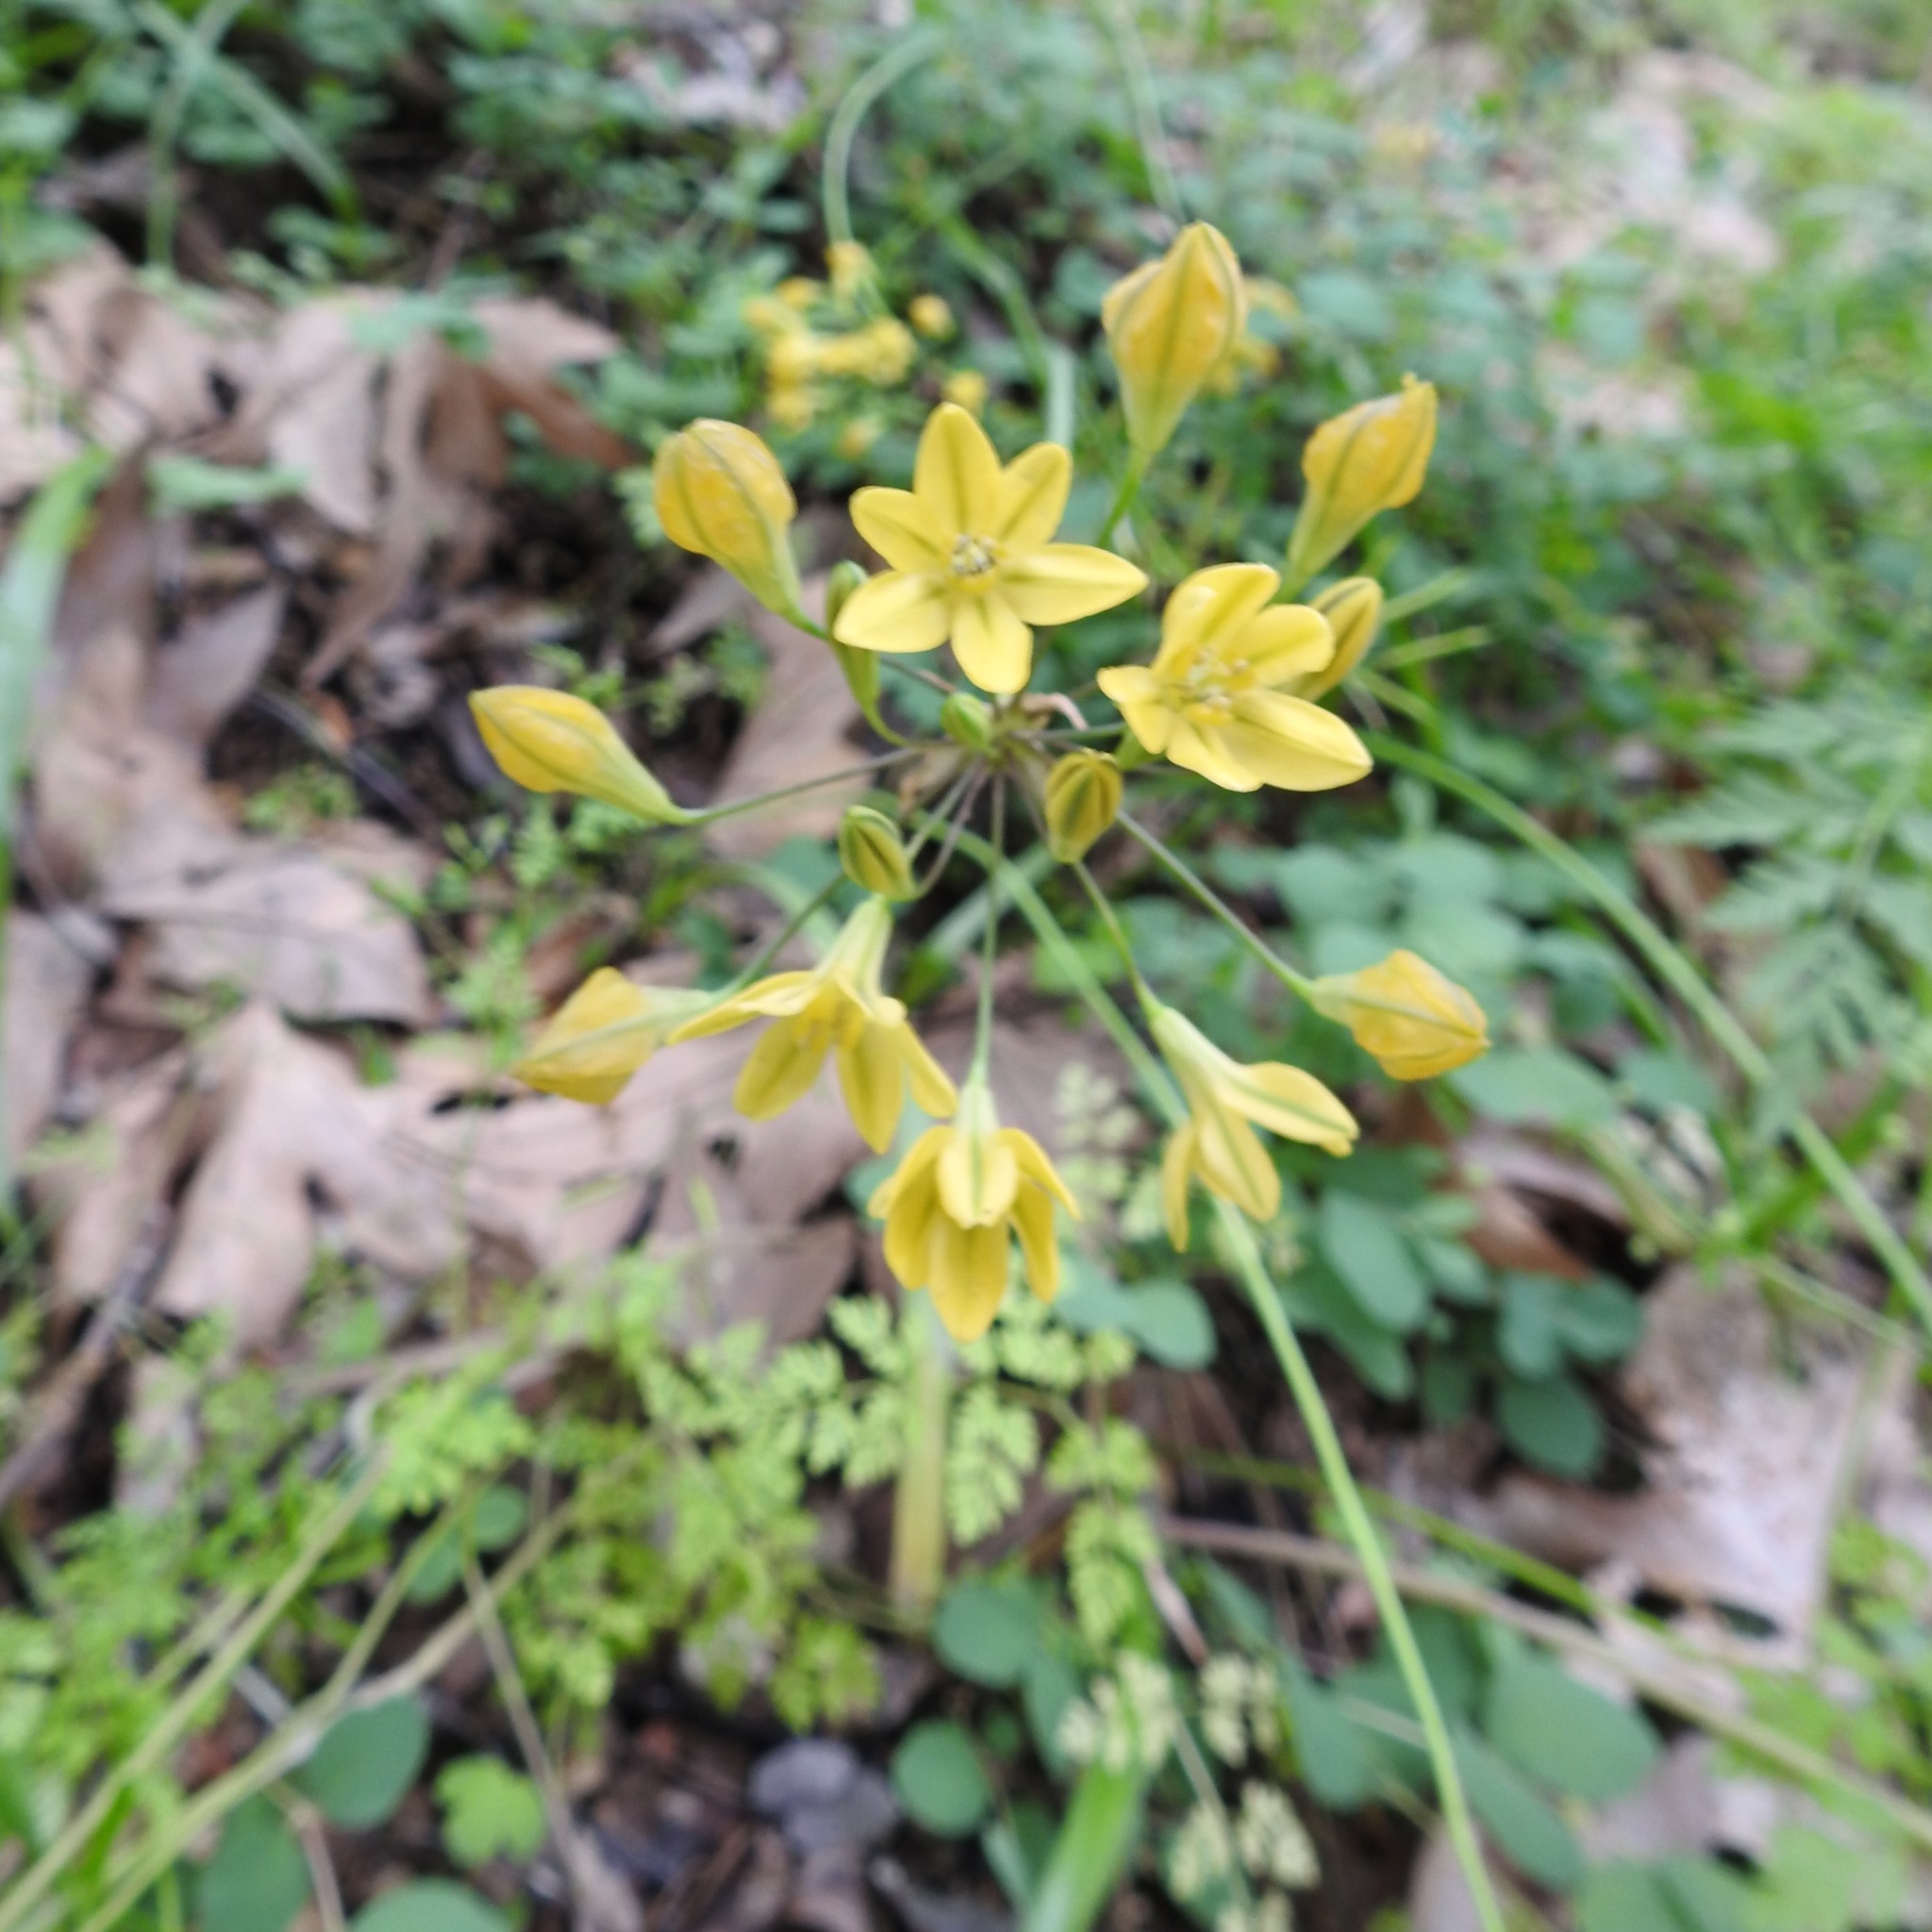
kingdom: Plantae
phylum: Tracheophyta
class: Liliopsida
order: Asparagales
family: Asparagaceae
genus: Triteleia
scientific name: Triteleia lugens
